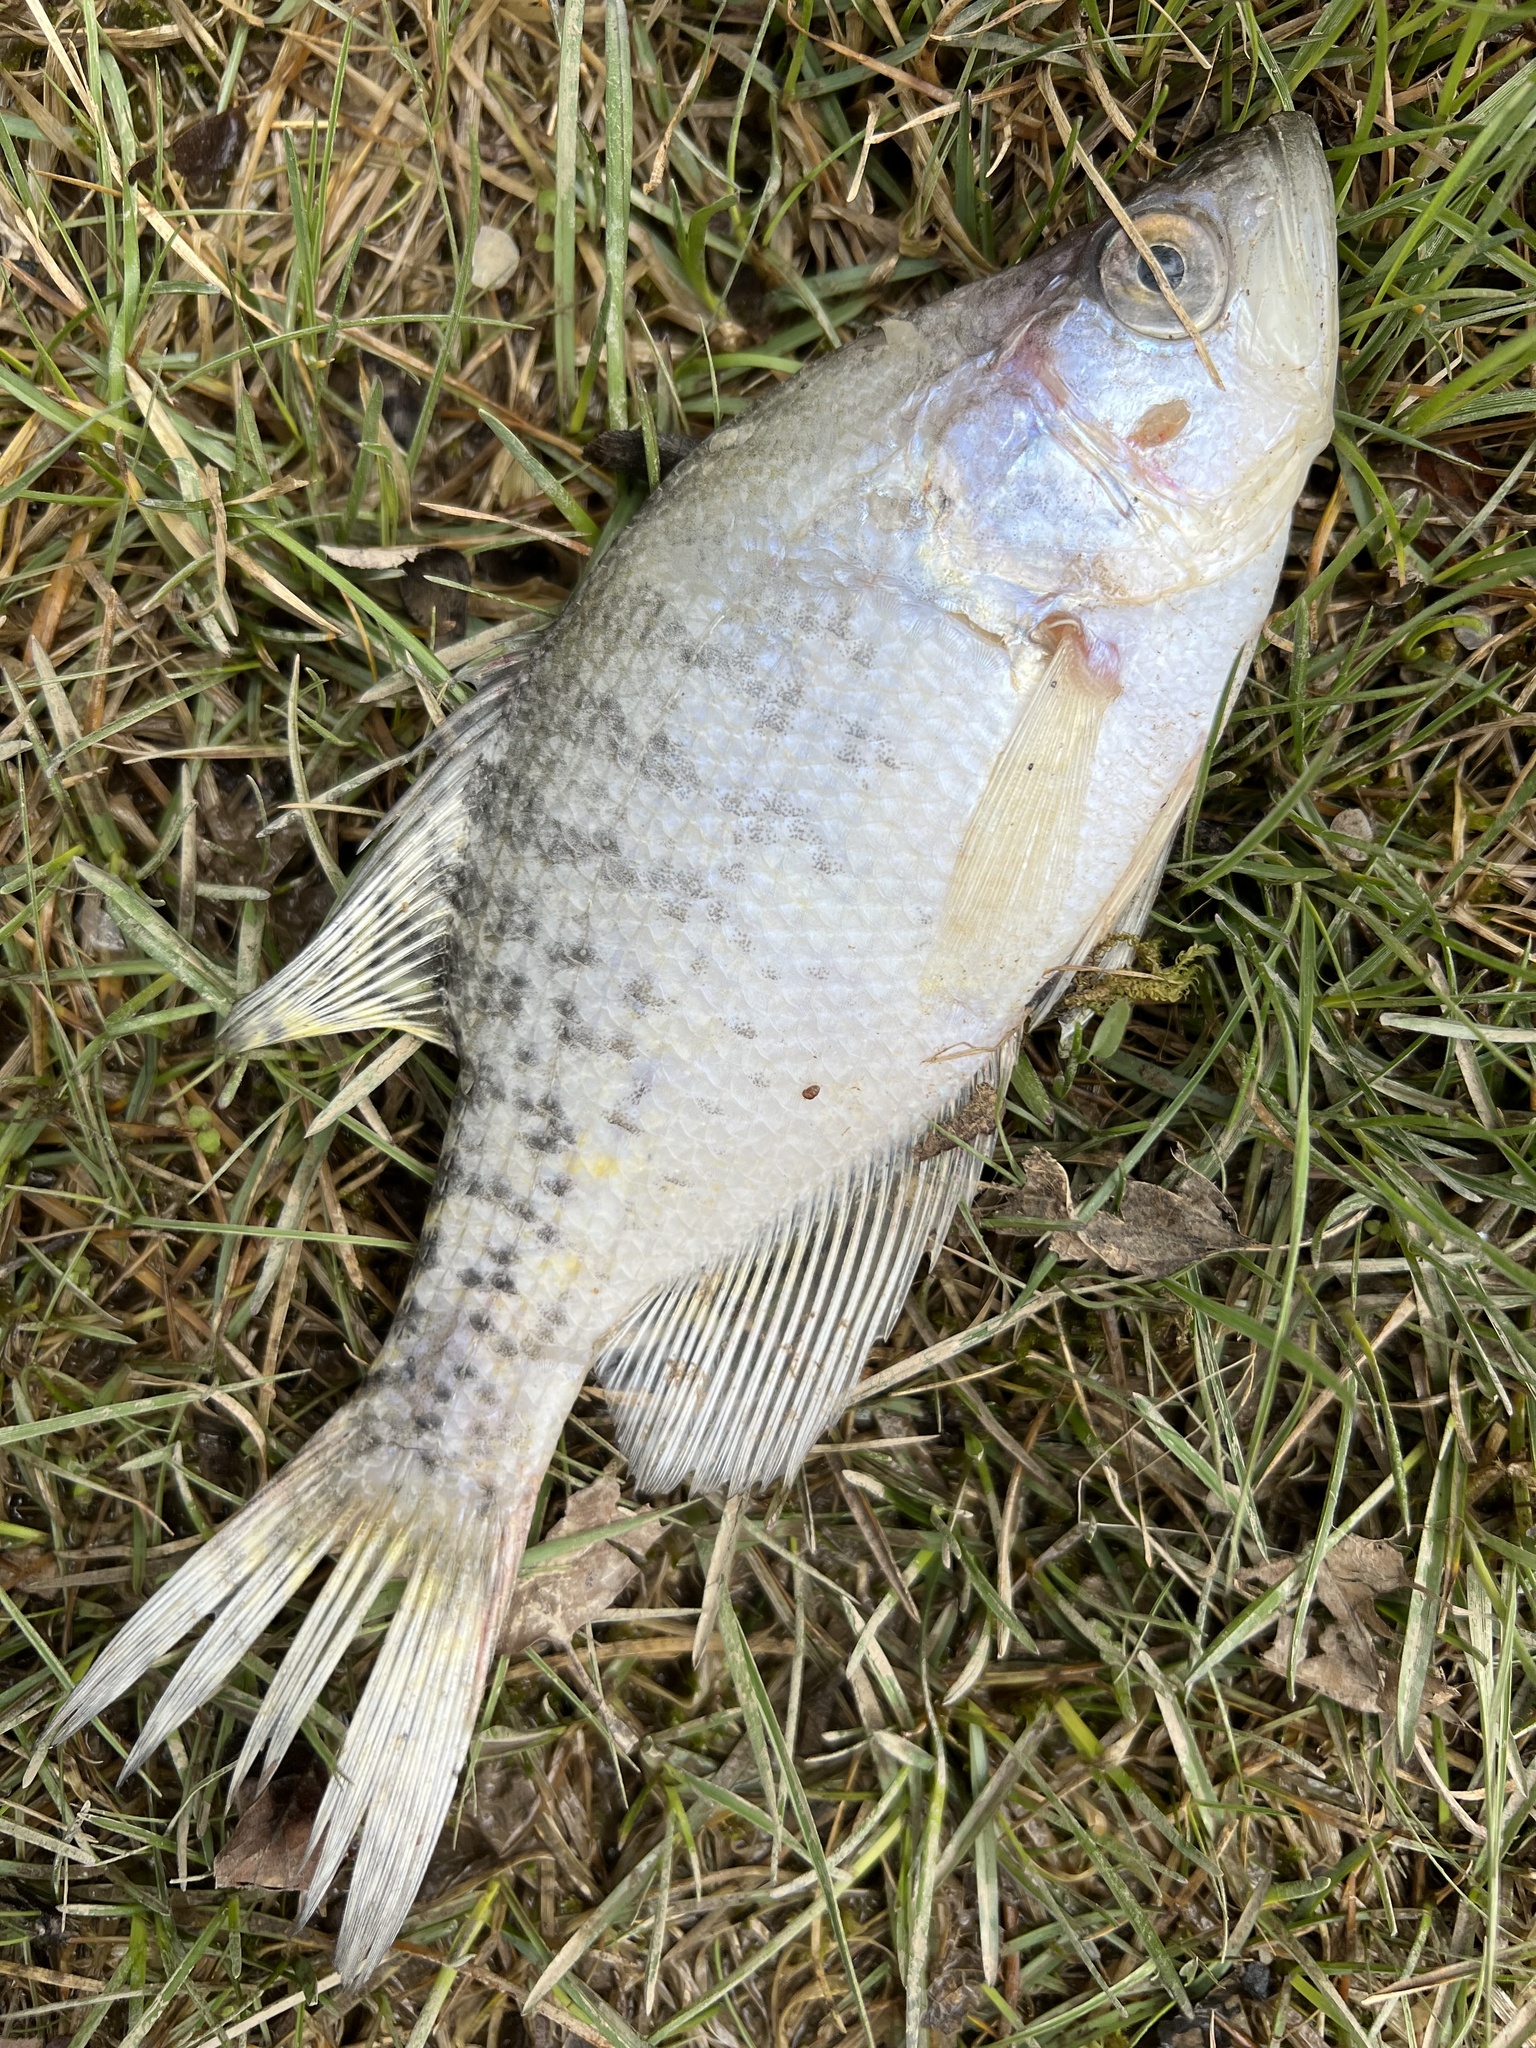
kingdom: Animalia
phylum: Chordata
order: Perciformes
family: Centrarchidae
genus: Pomoxis
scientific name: Pomoxis annularis
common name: White crappie
